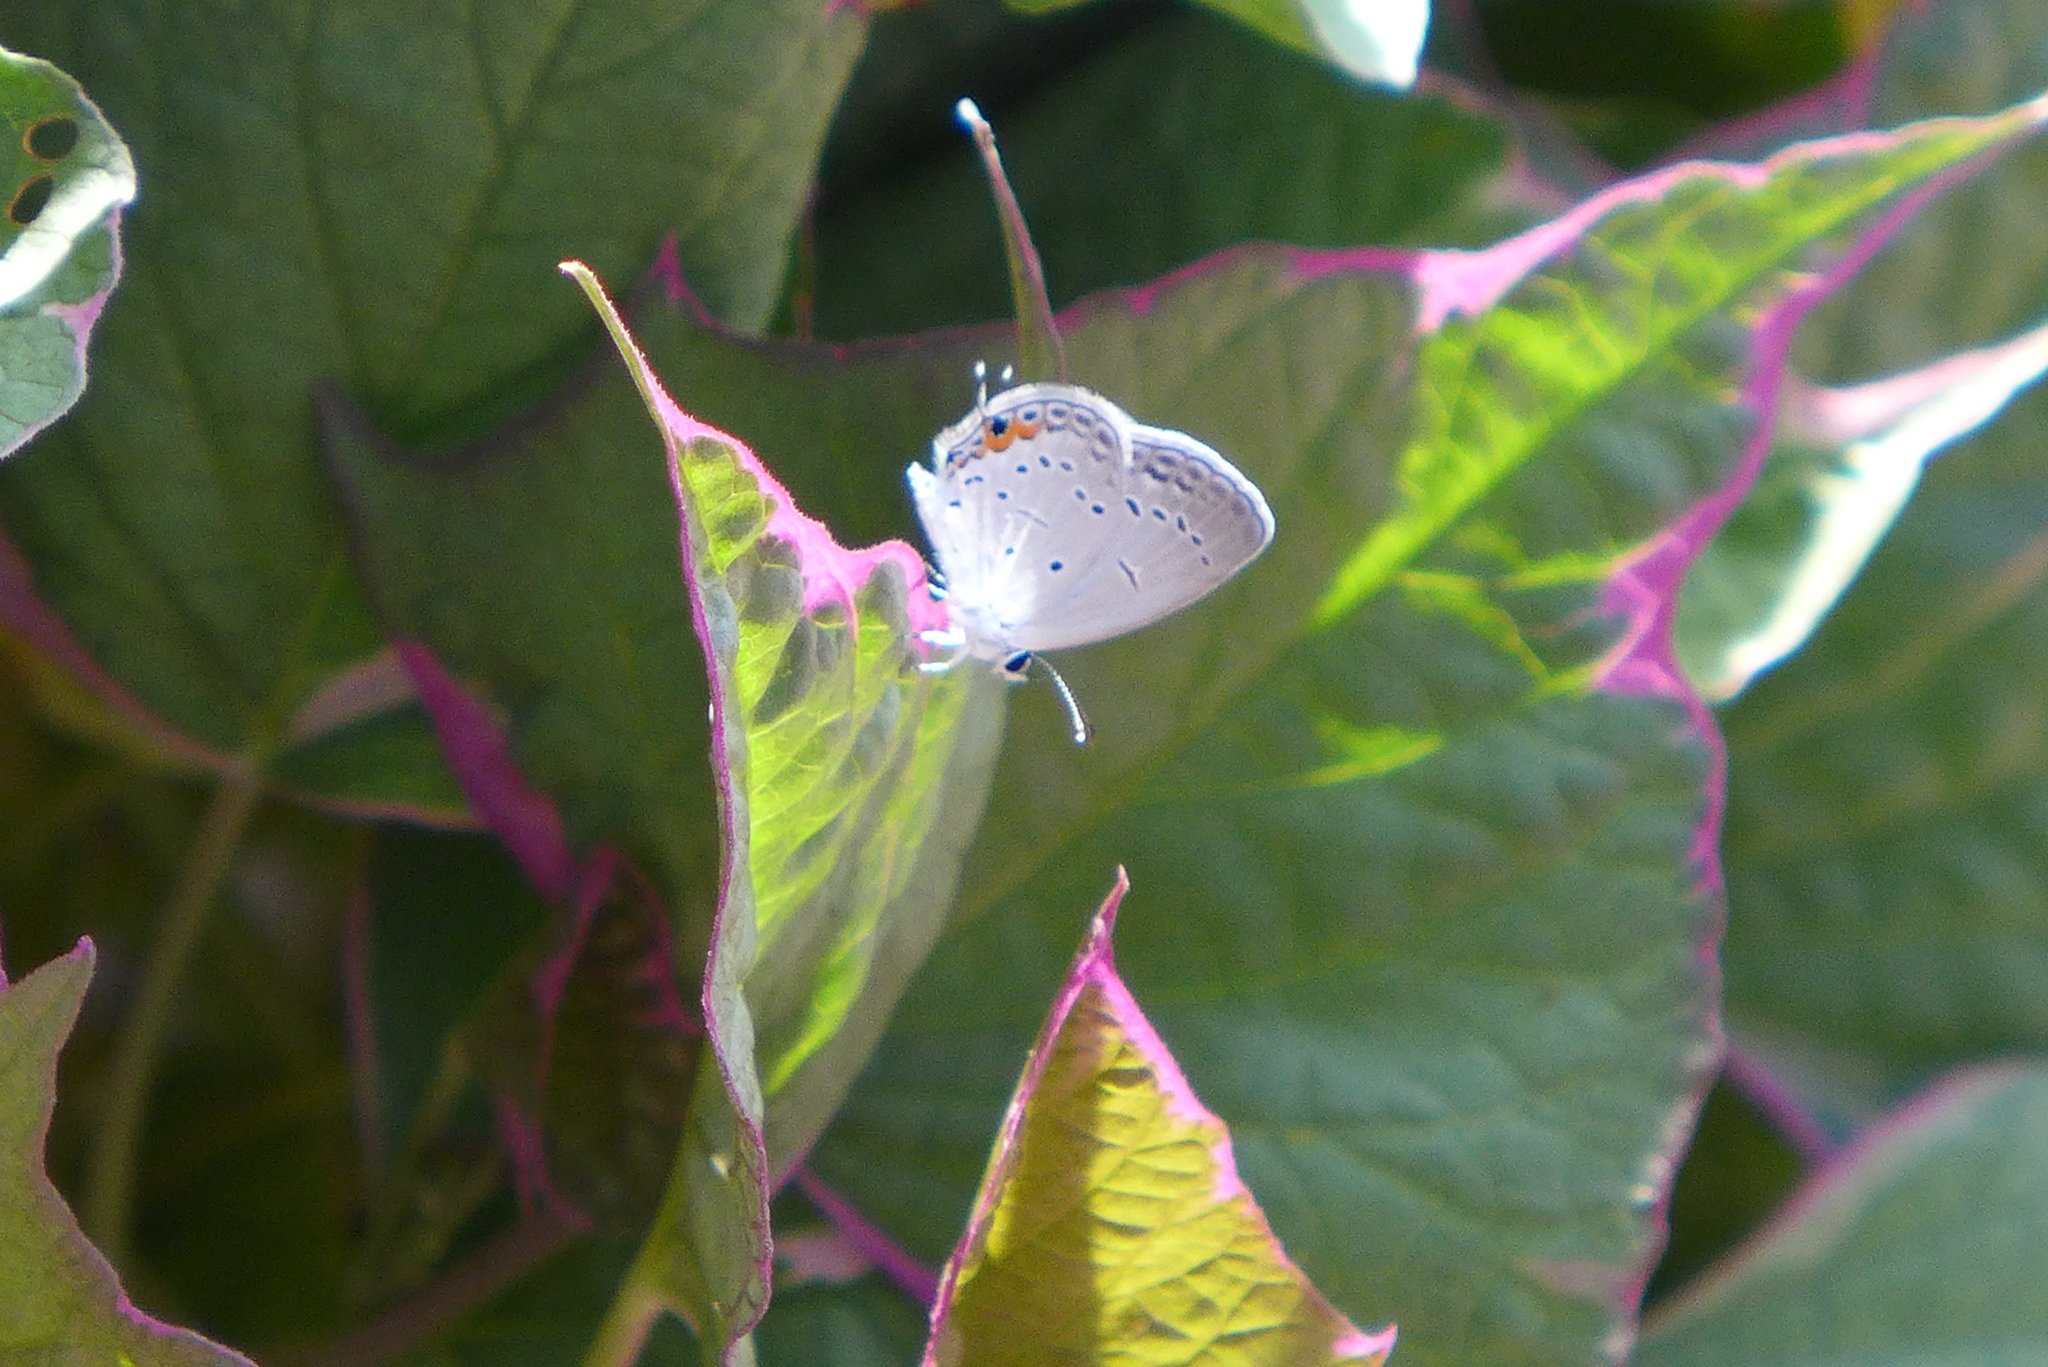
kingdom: Animalia
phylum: Arthropoda
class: Insecta
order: Lepidoptera
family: Lycaenidae
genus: Elkalyce
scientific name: Elkalyce comyntas
